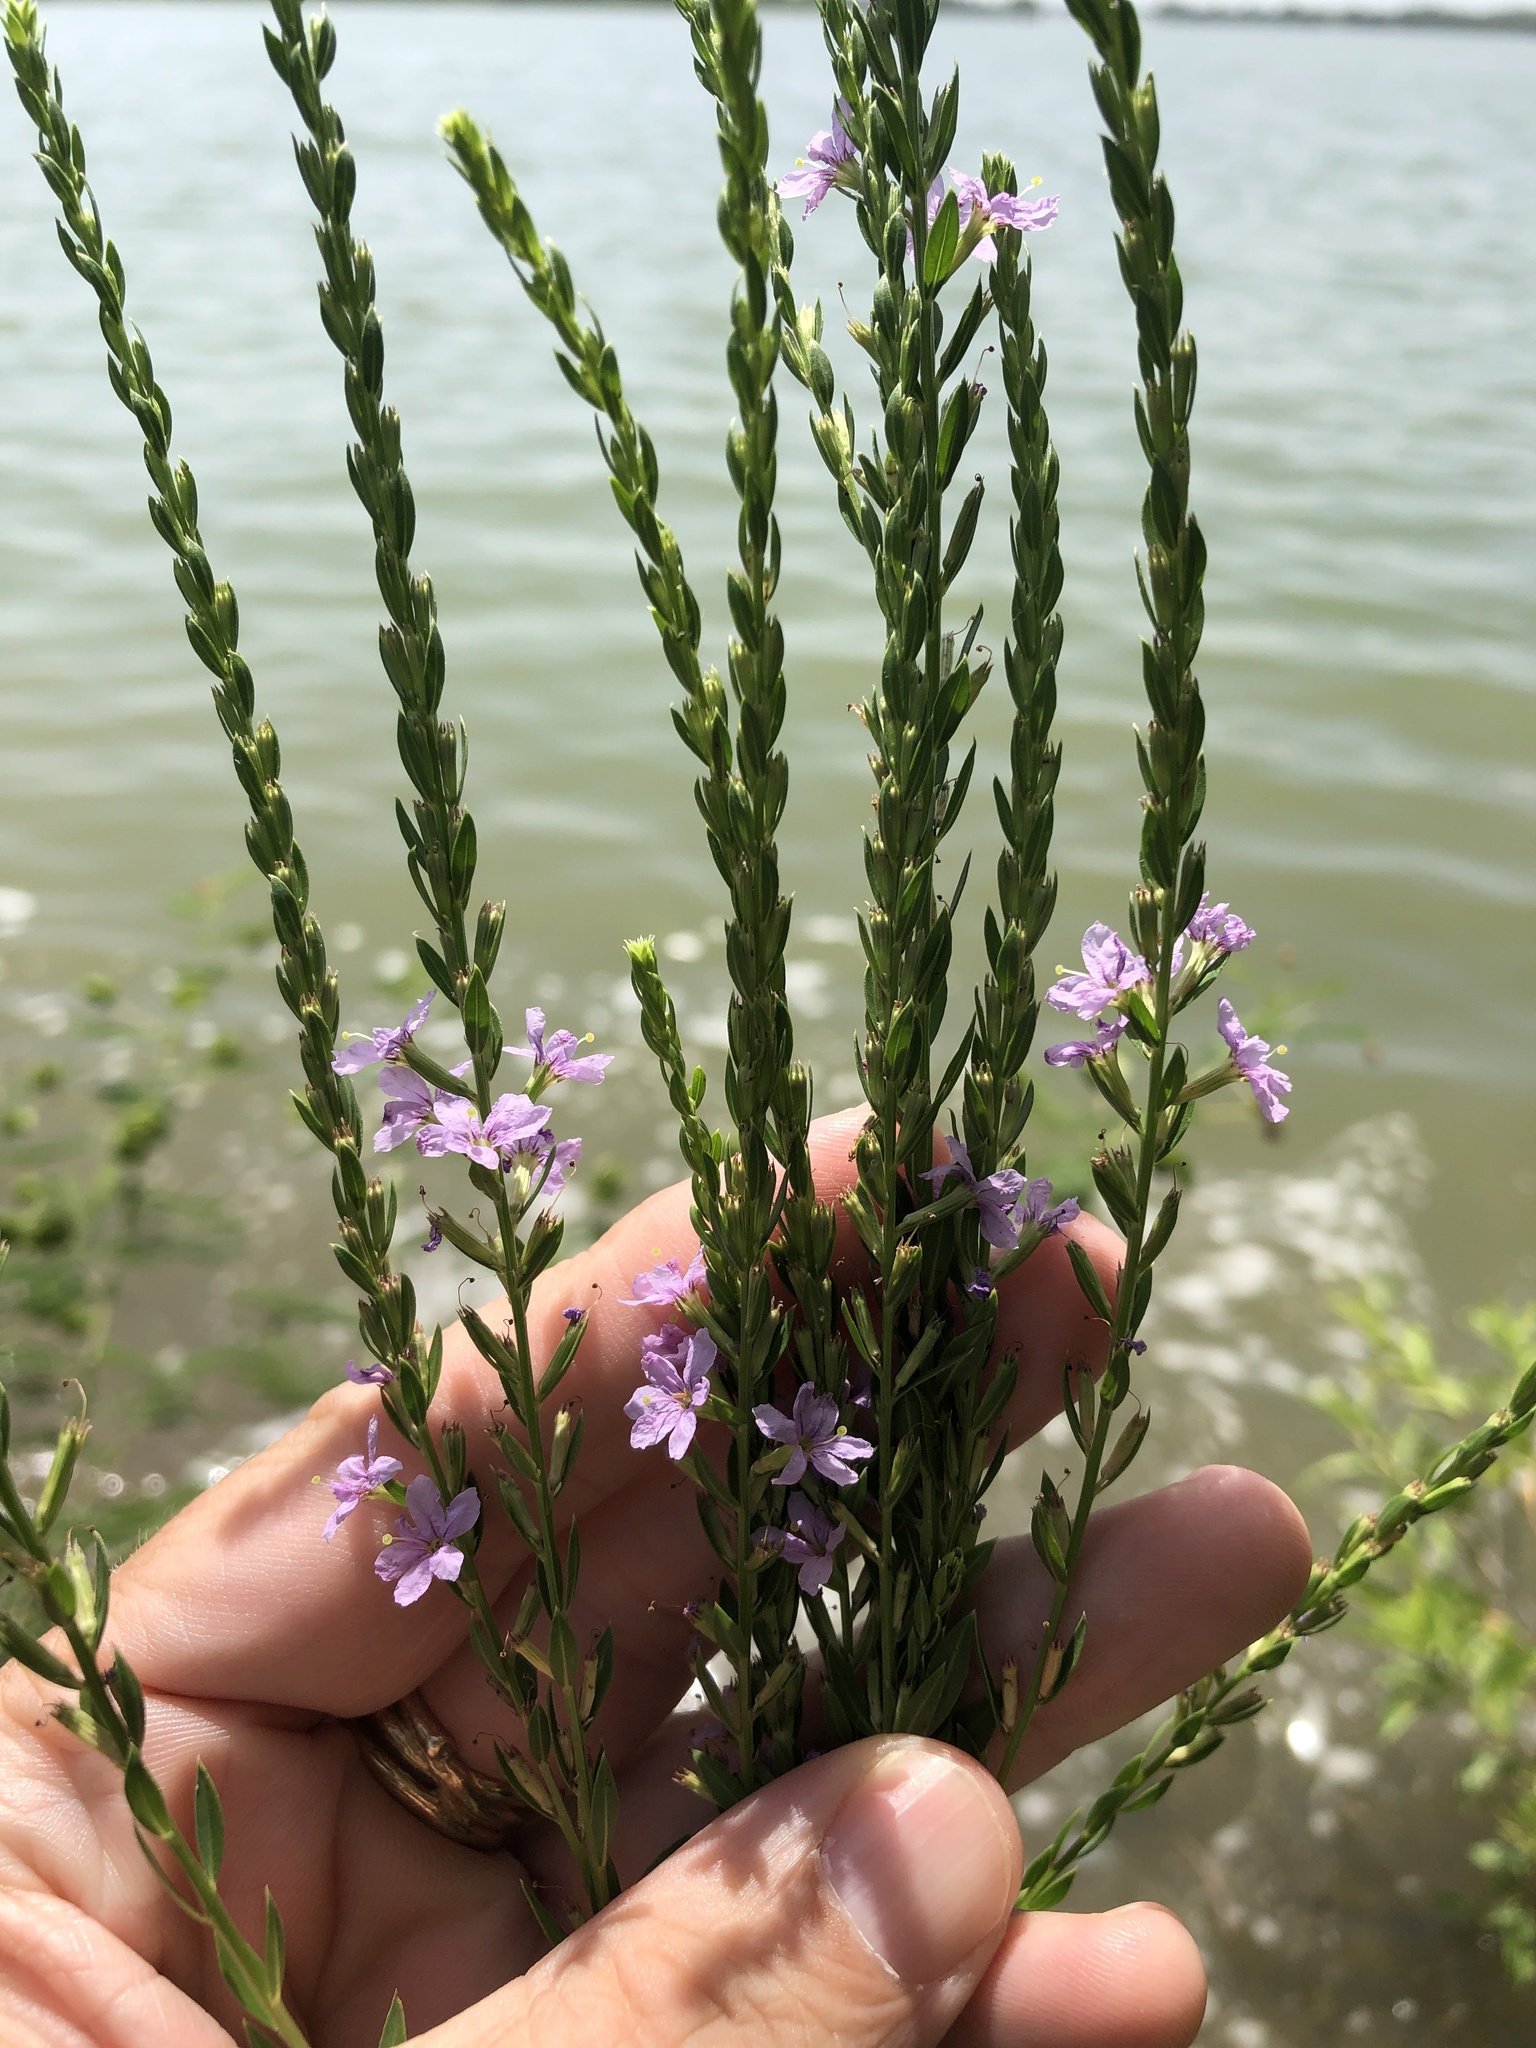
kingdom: Plantae
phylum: Tracheophyta
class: Magnoliopsida
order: Myrtales
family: Lythraceae
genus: Lythrum
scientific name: Lythrum alatum
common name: Winged loosestrife
